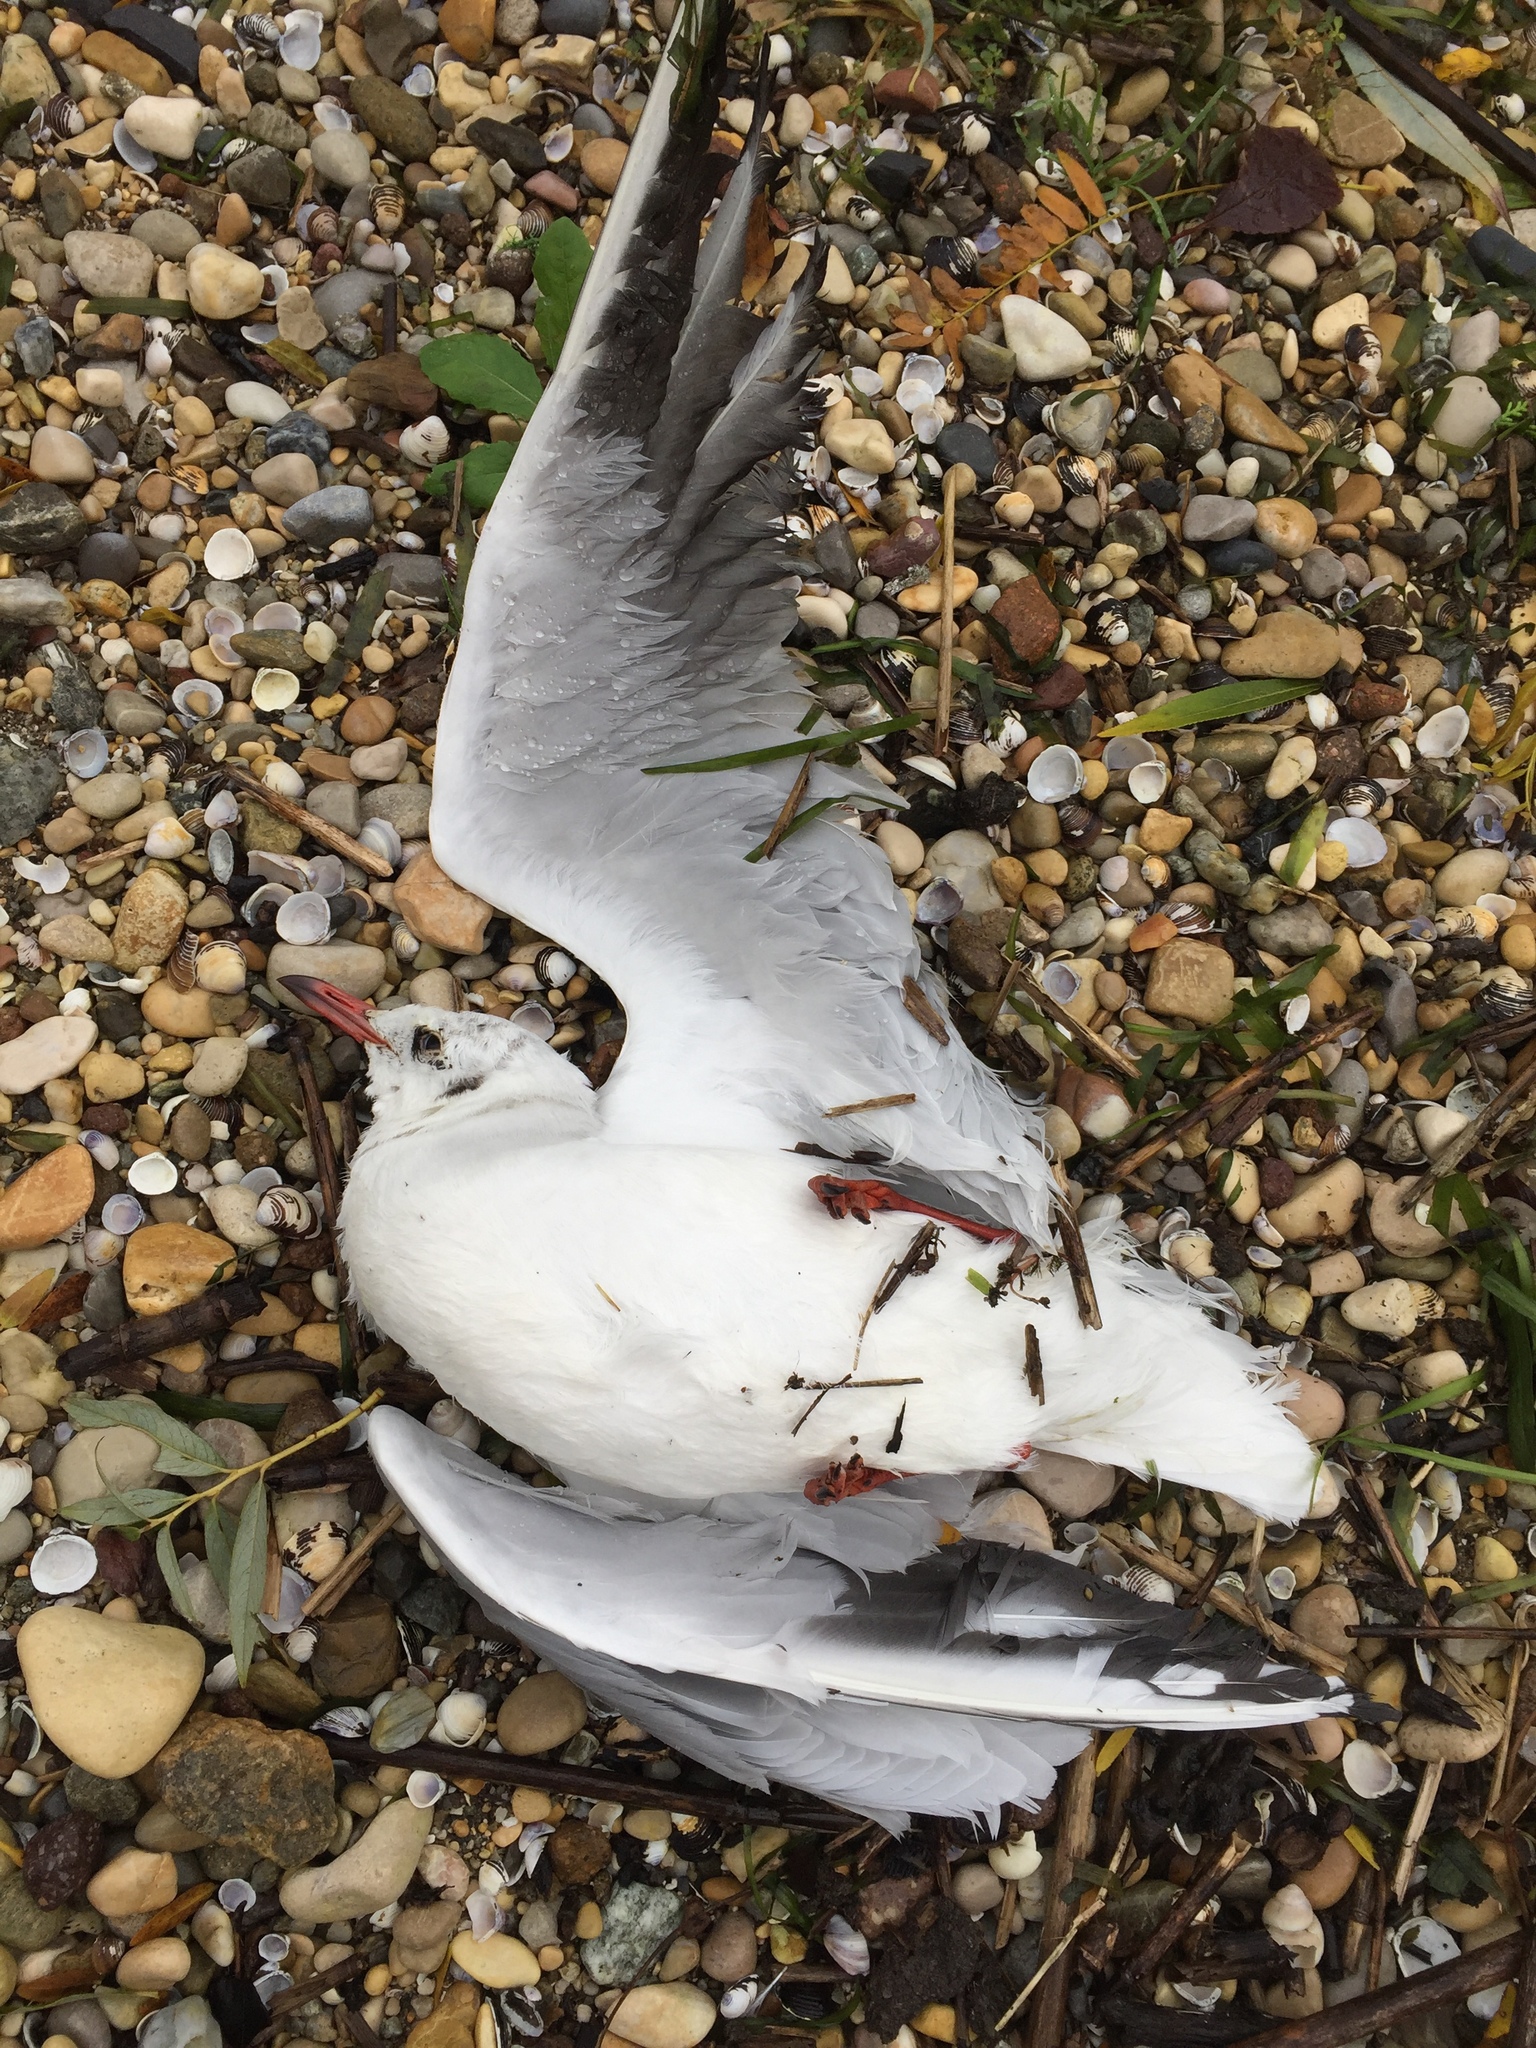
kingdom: Animalia
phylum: Chordata
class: Aves
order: Charadriiformes
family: Laridae
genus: Chroicocephalus
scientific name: Chroicocephalus ridibundus
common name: Black-headed gull
